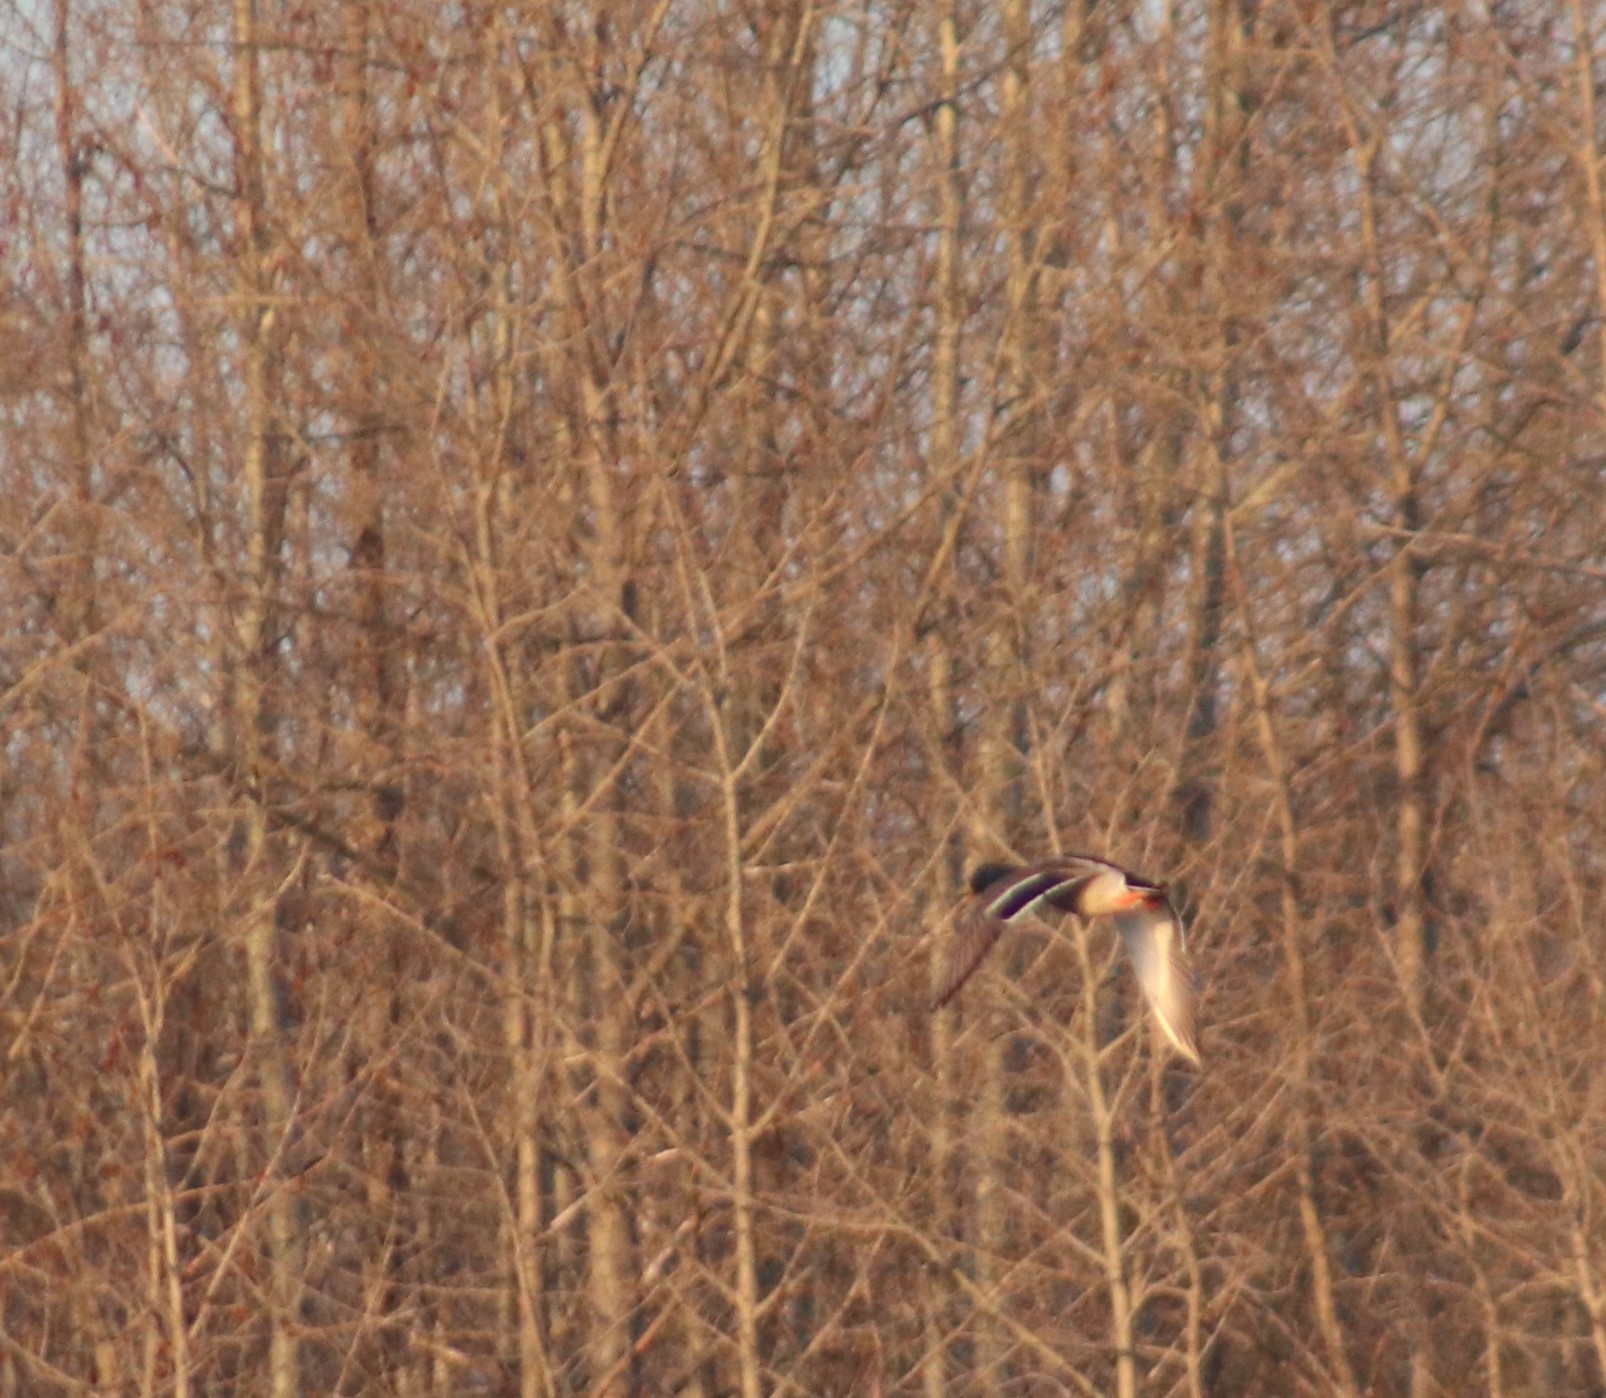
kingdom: Animalia
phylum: Chordata
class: Aves
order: Anseriformes
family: Anatidae
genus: Anas
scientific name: Anas platyrhynchos
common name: Mallard
